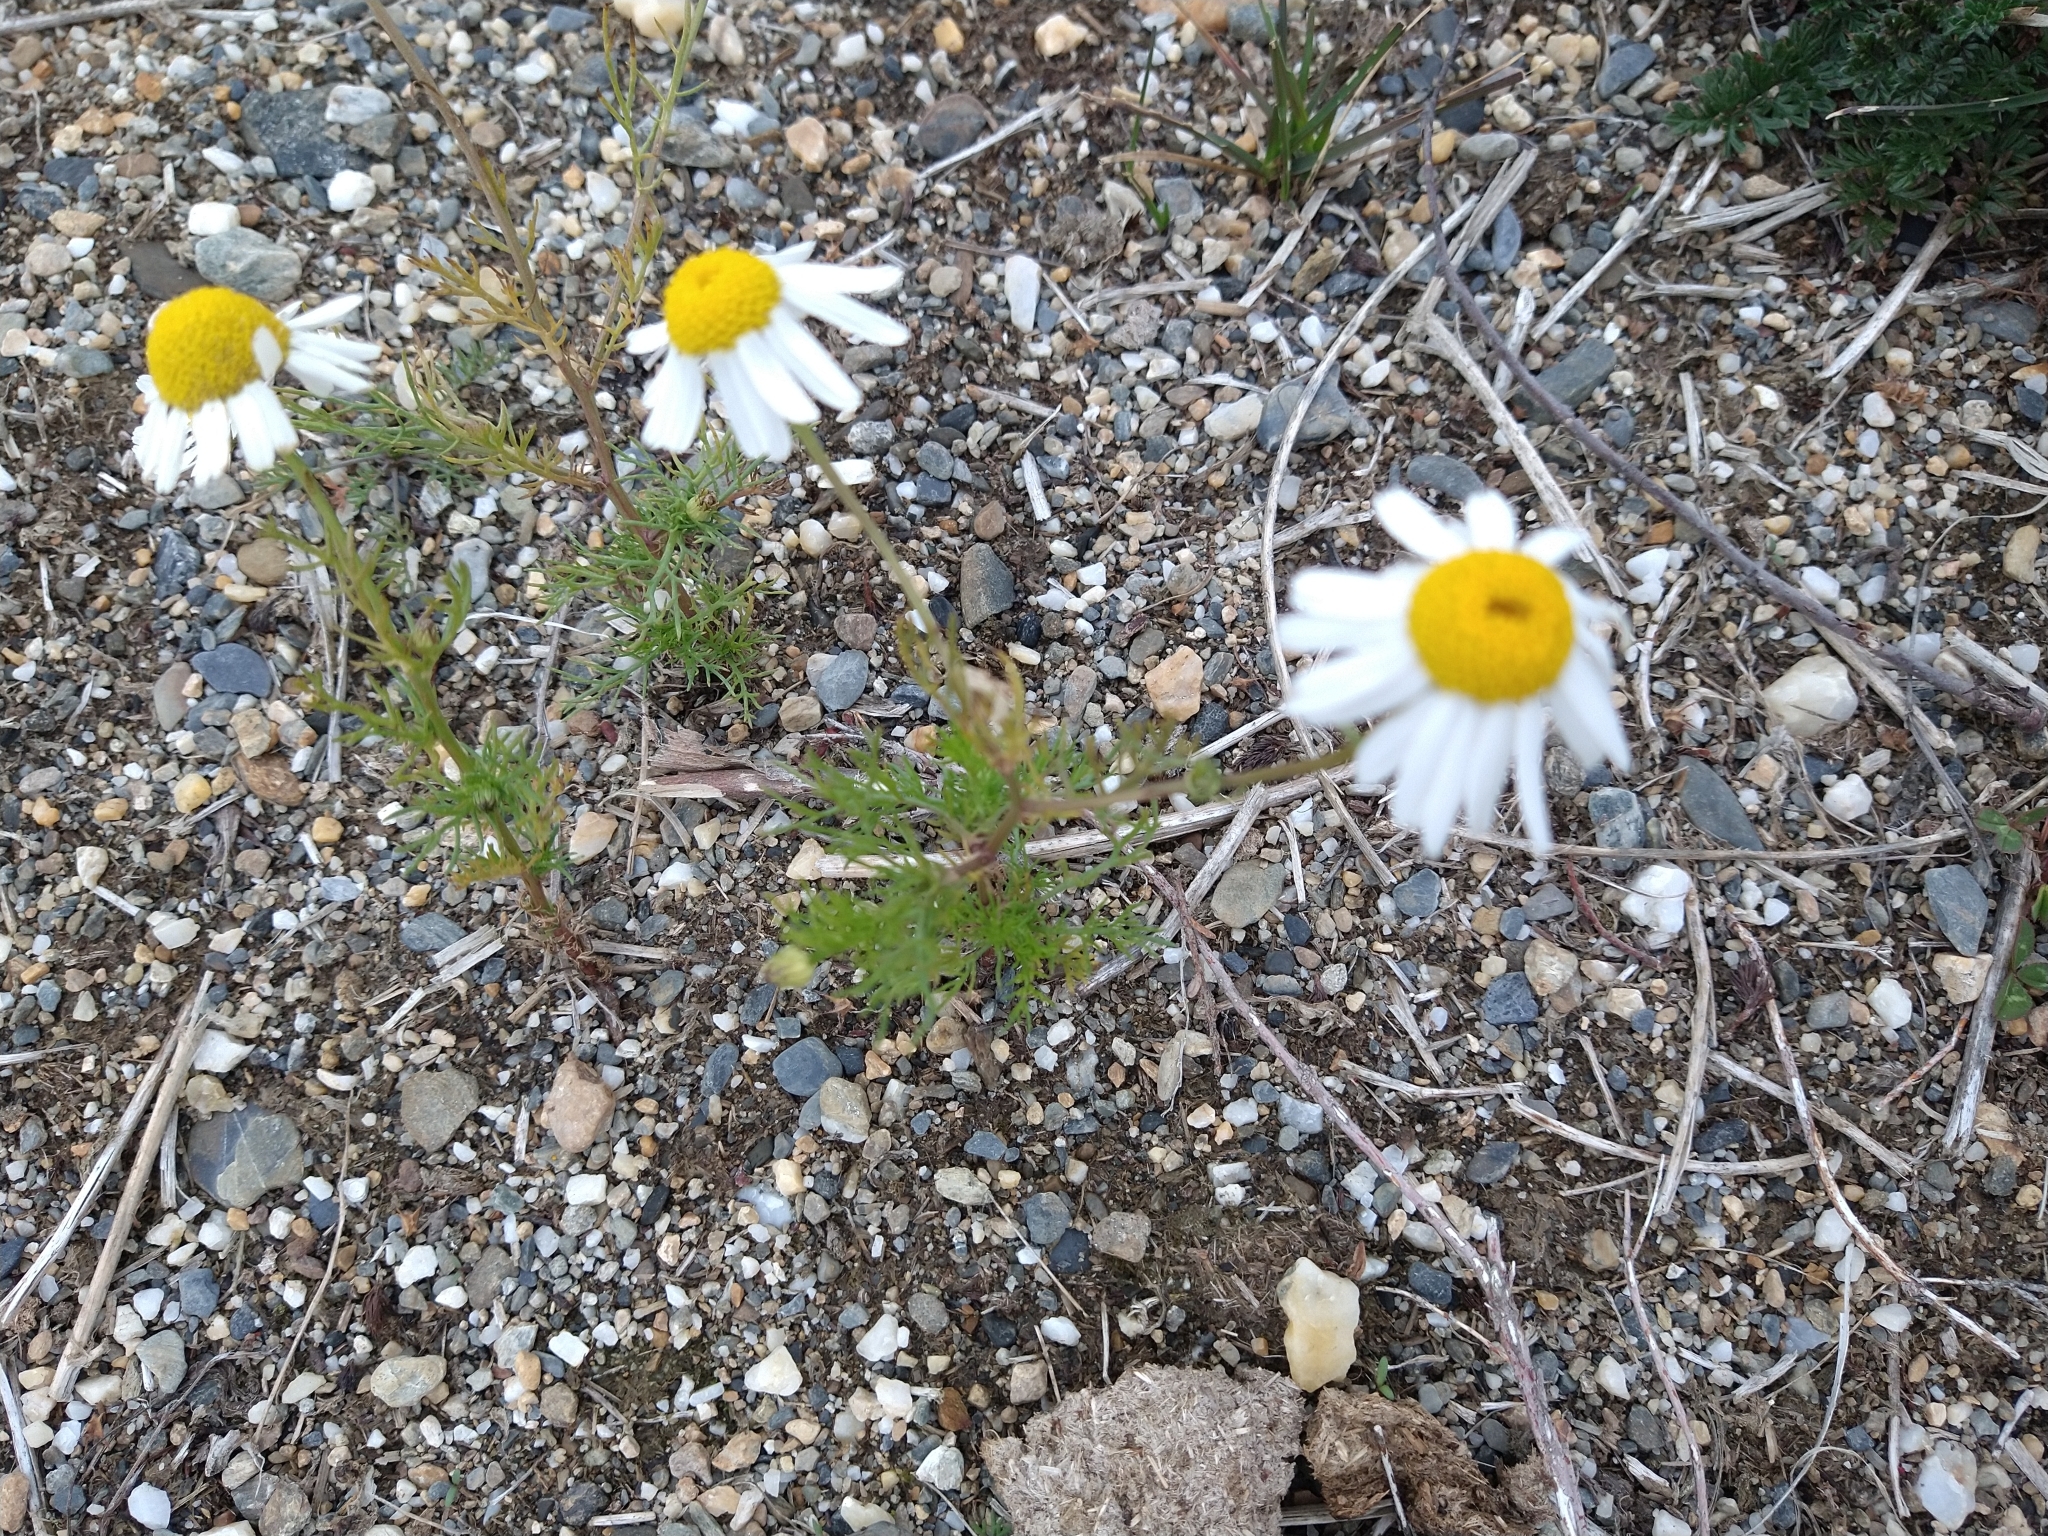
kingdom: Plantae
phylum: Tracheophyta
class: Magnoliopsida
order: Asterales
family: Asteraceae
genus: Tripleurospermum
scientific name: Tripleurospermum inodorum
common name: Scentless mayweed
